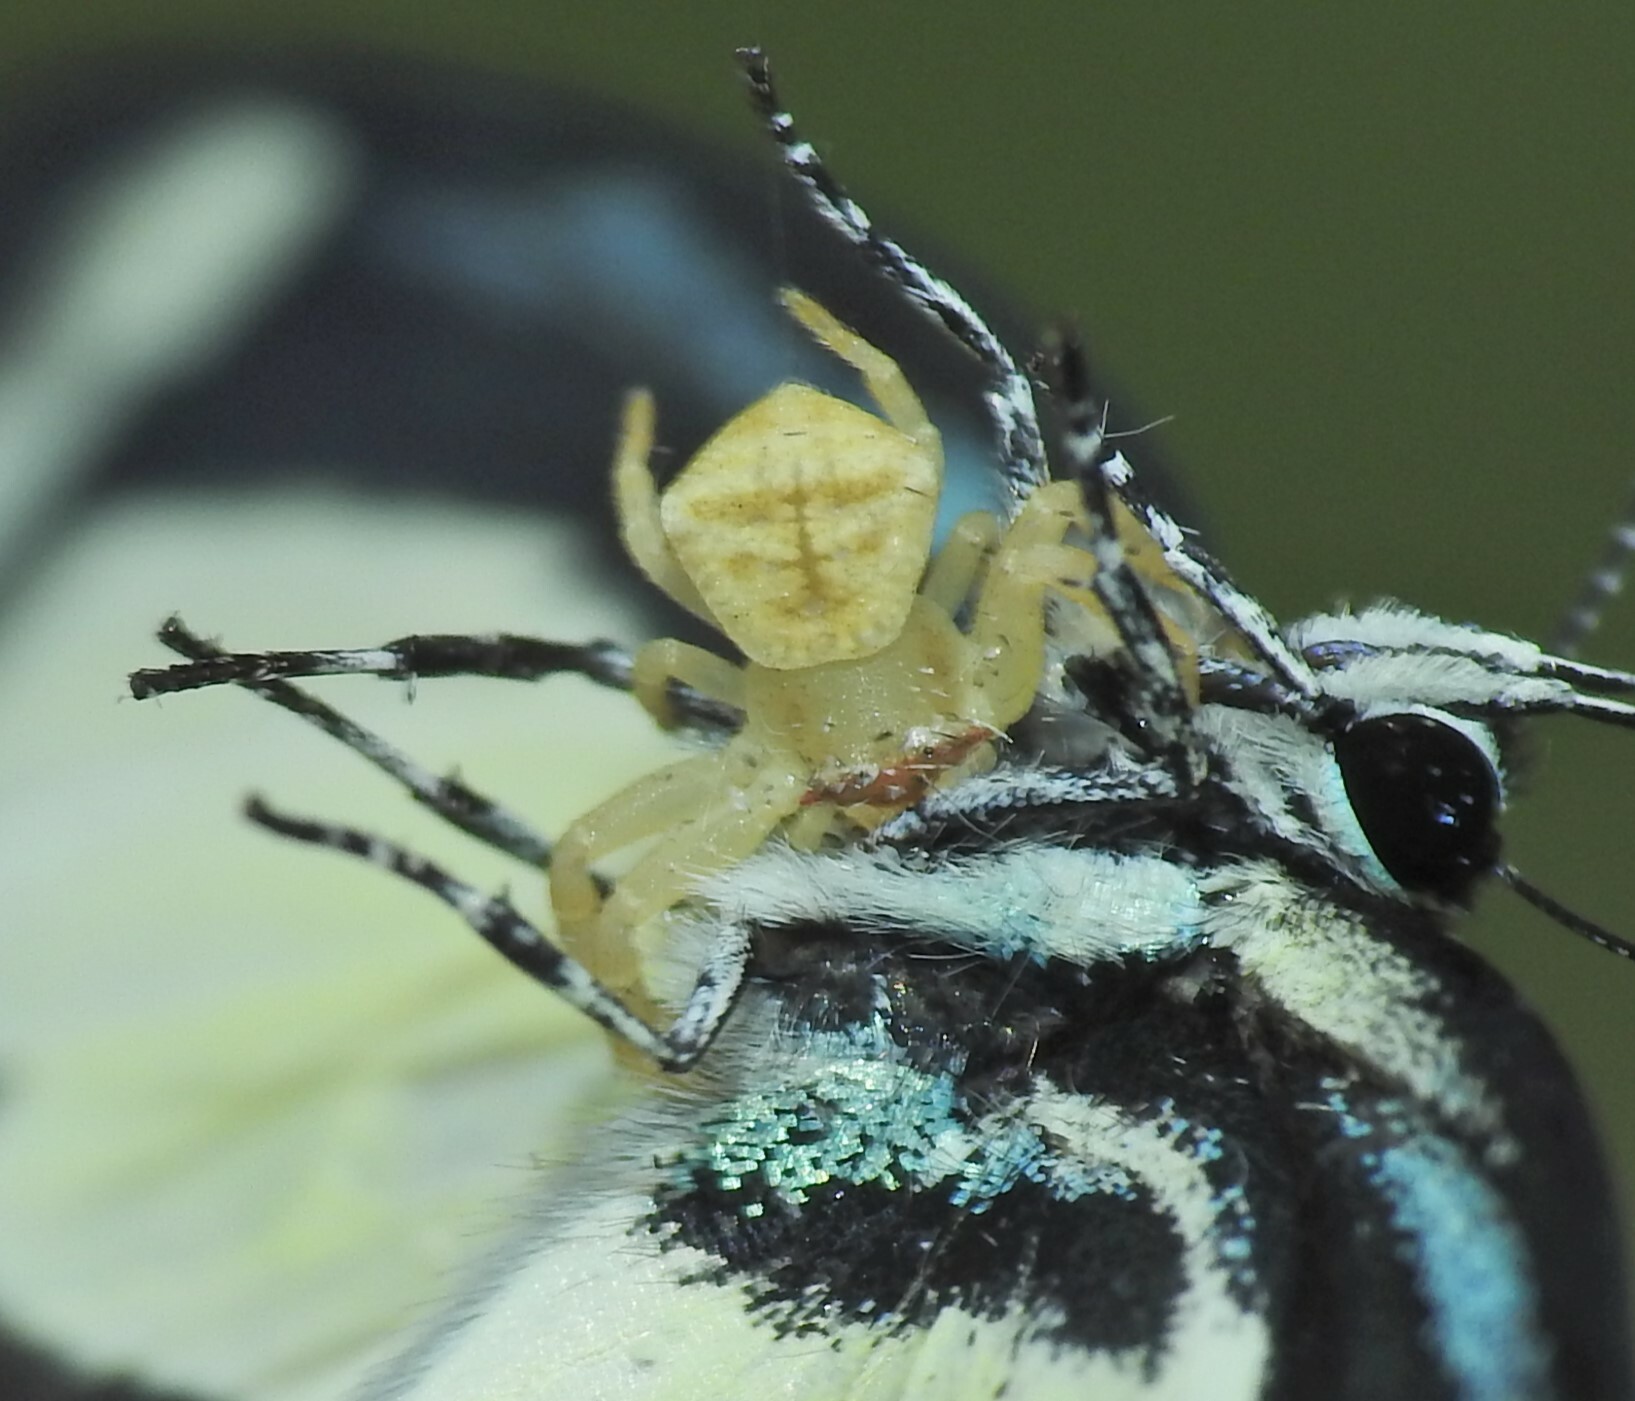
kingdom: Animalia
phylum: Arthropoda
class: Arachnida
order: Araneae
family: Thomisidae
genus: Thomisus
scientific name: Thomisus spectabilis
